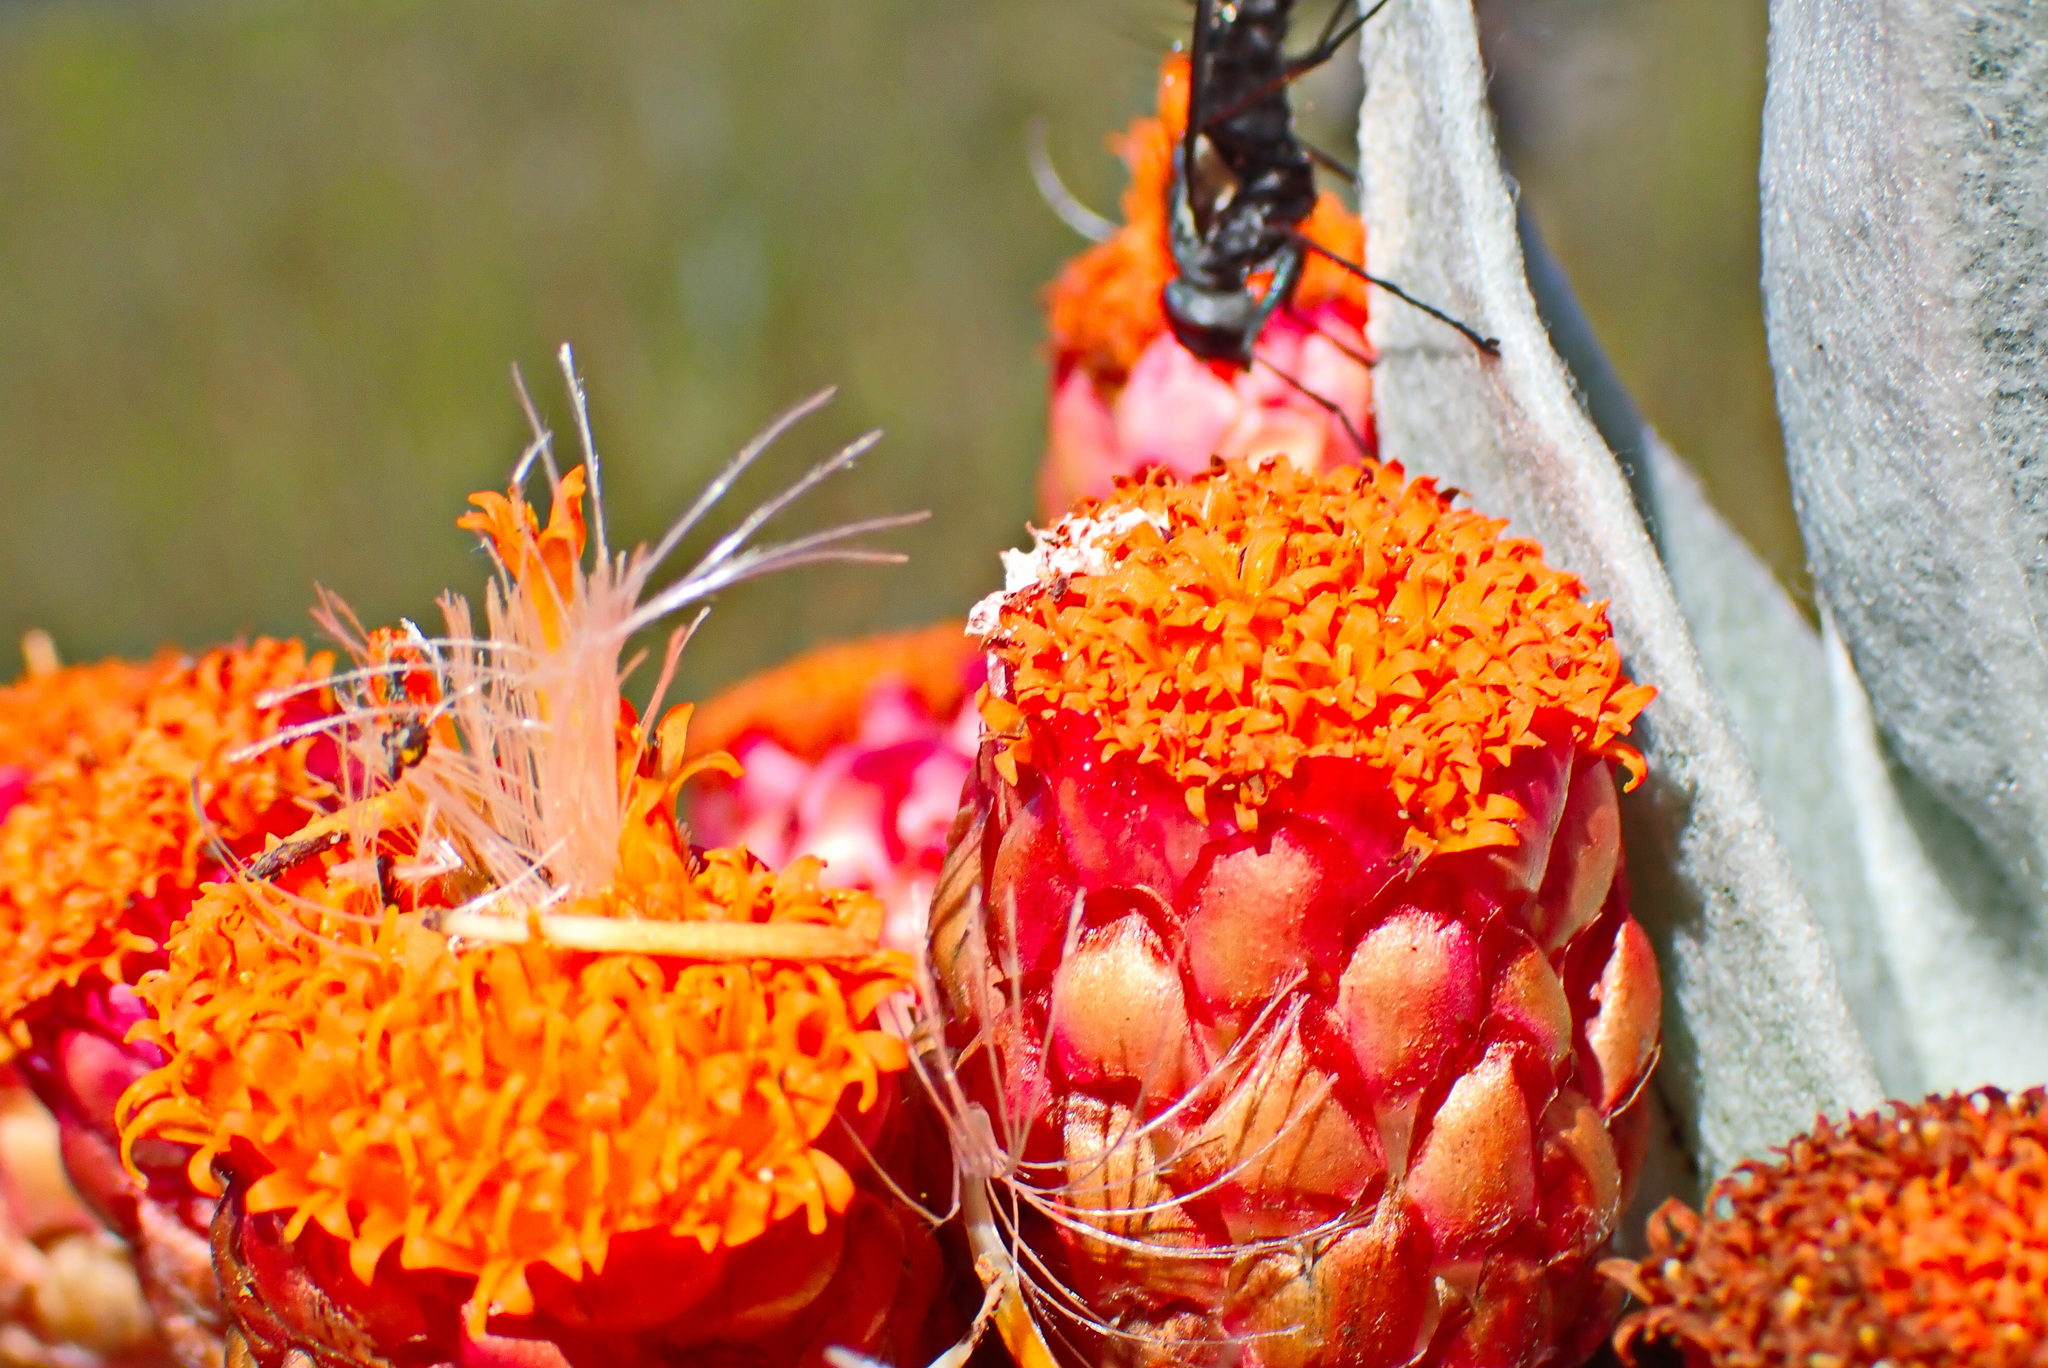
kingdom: Plantae
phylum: Tracheophyta
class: Magnoliopsida
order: Asterales
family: Asteraceae
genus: Syncarpha
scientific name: Syncarpha eximia
